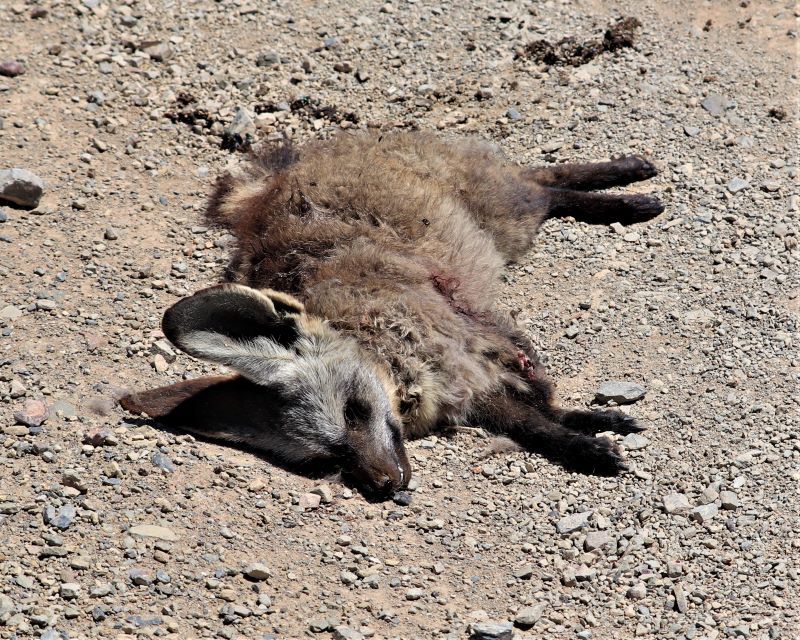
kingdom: Animalia
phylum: Chordata
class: Mammalia
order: Carnivora
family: Canidae
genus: Otocyon
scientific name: Otocyon megalotis
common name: Bat-eared fox
